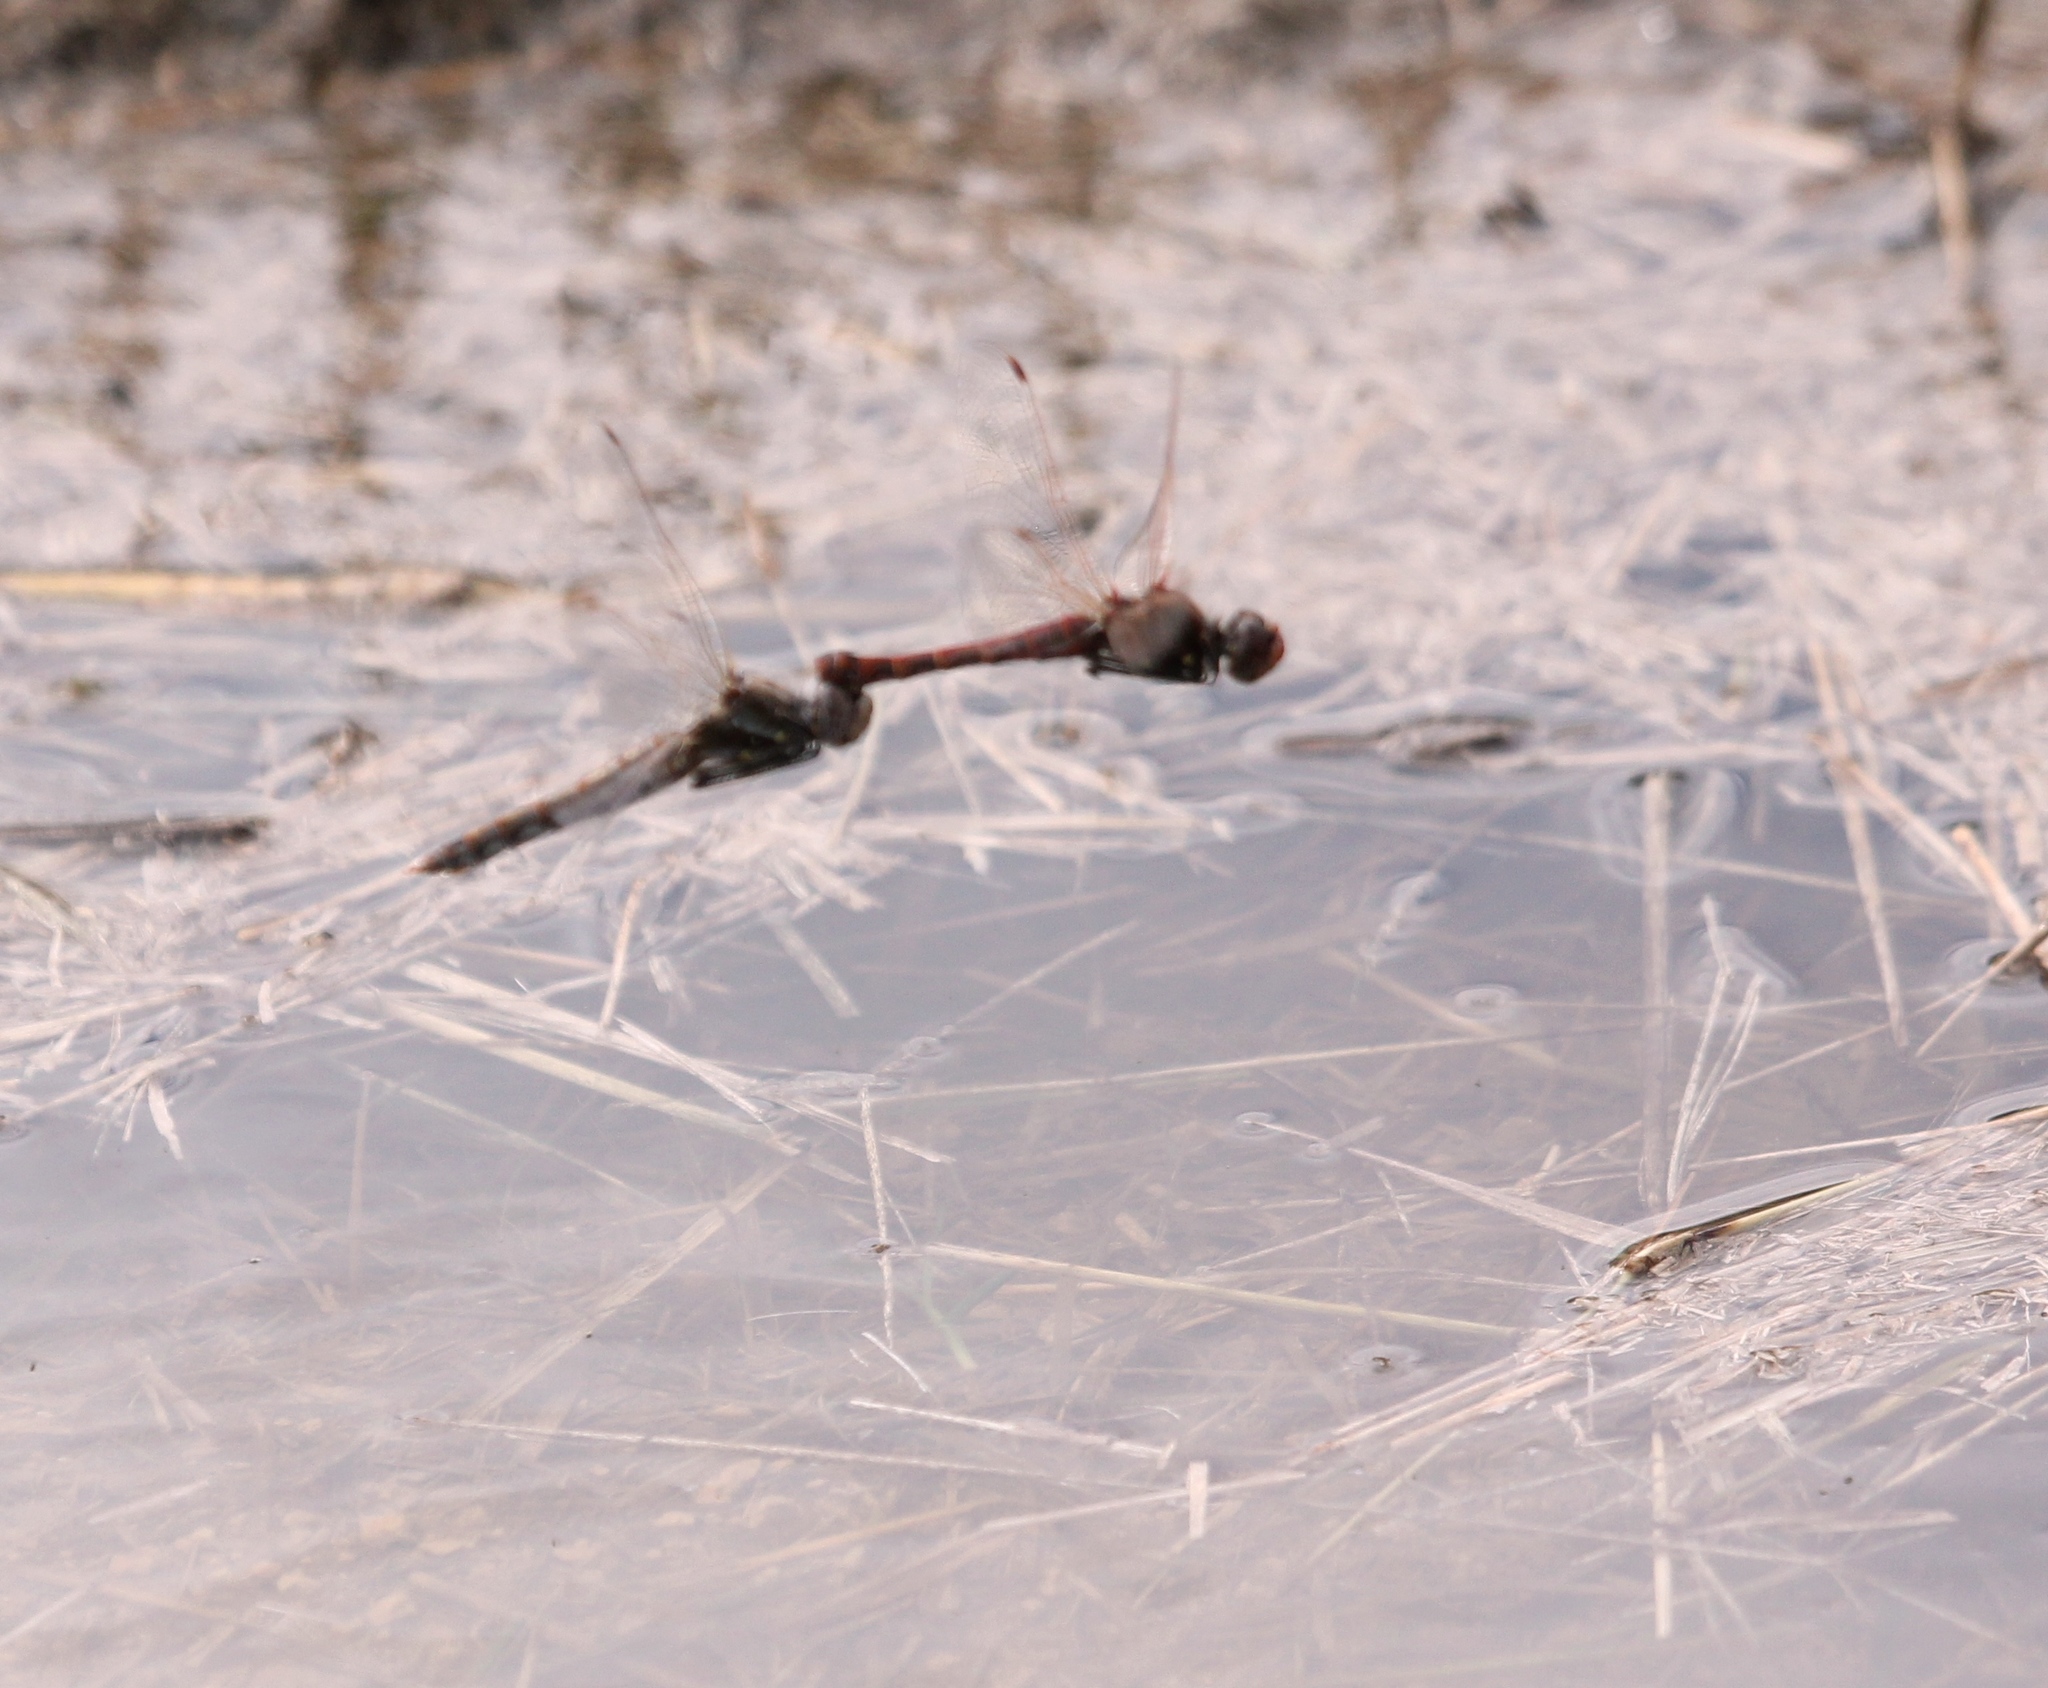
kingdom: Animalia
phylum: Arthropoda
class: Insecta
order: Odonata
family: Libellulidae
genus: Sympetrum
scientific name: Sympetrum corruptum
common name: Variegated meadowhawk
